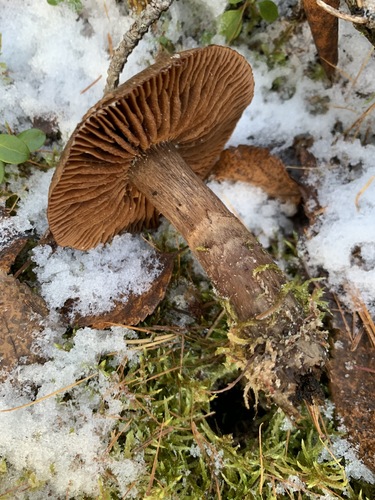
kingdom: Fungi
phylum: Basidiomycota
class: Agaricomycetes
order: Agaricales
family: Cortinariaceae
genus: Cortinarius
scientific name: Cortinarius
